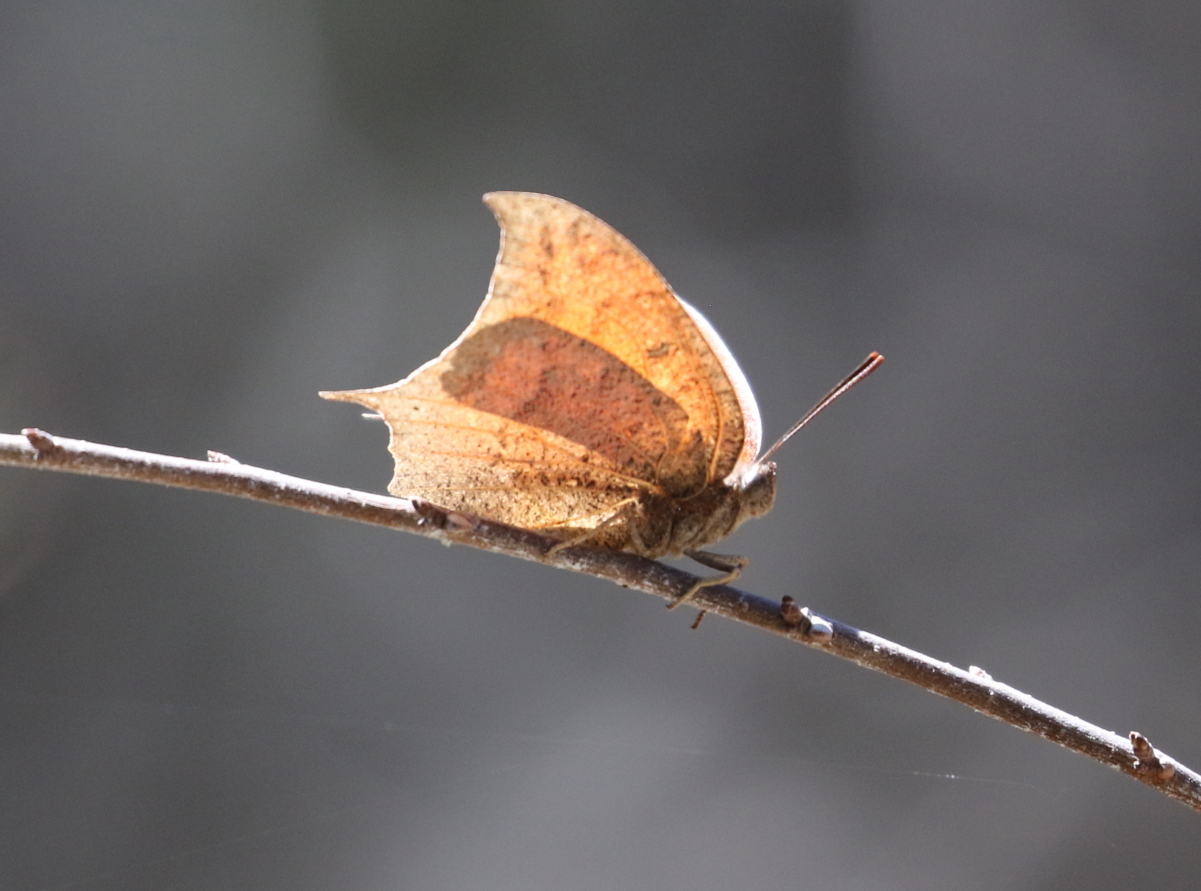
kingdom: Animalia
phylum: Arthropoda
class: Insecta
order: Lepidoptera
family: Nymphalidae
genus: Anaea
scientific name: Anaea andria
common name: Goatweed leafwing
